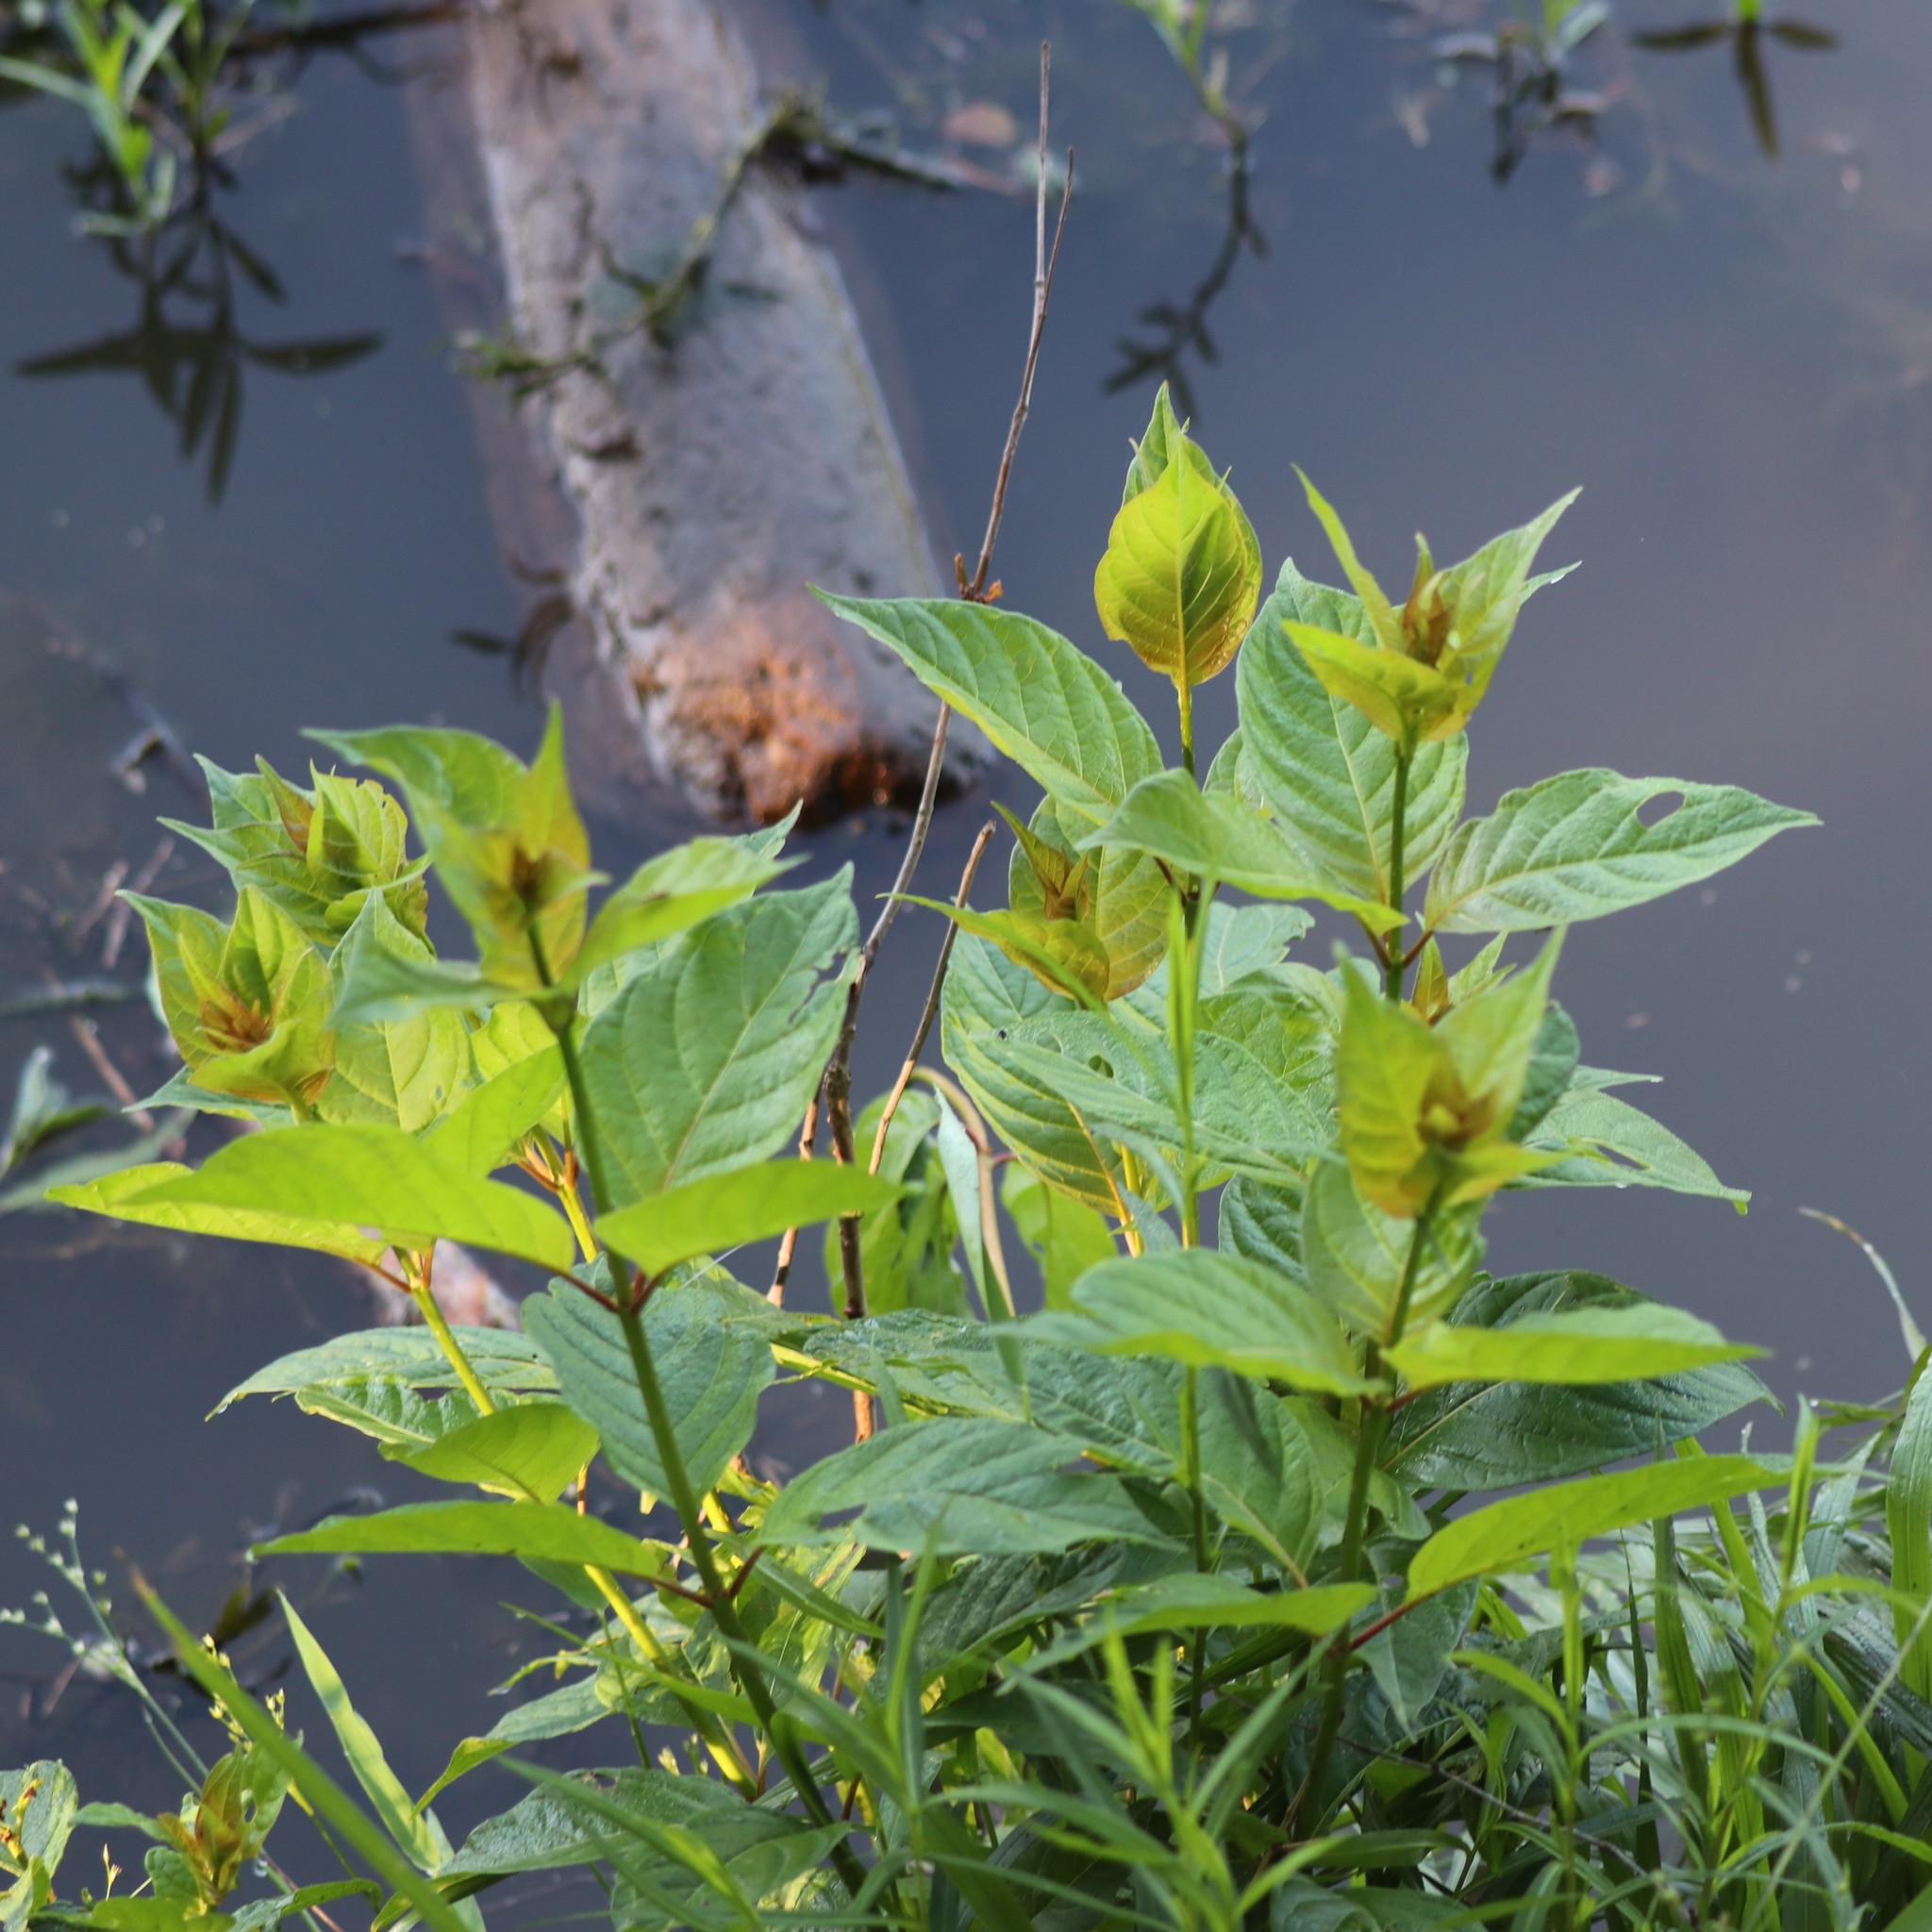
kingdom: Plantae
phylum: Tracheophyta
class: Magnoliopsida
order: Gentianales
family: Rubiaceae
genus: Cephalanthus
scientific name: Cephalanthus occidentalis
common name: Button-willow
